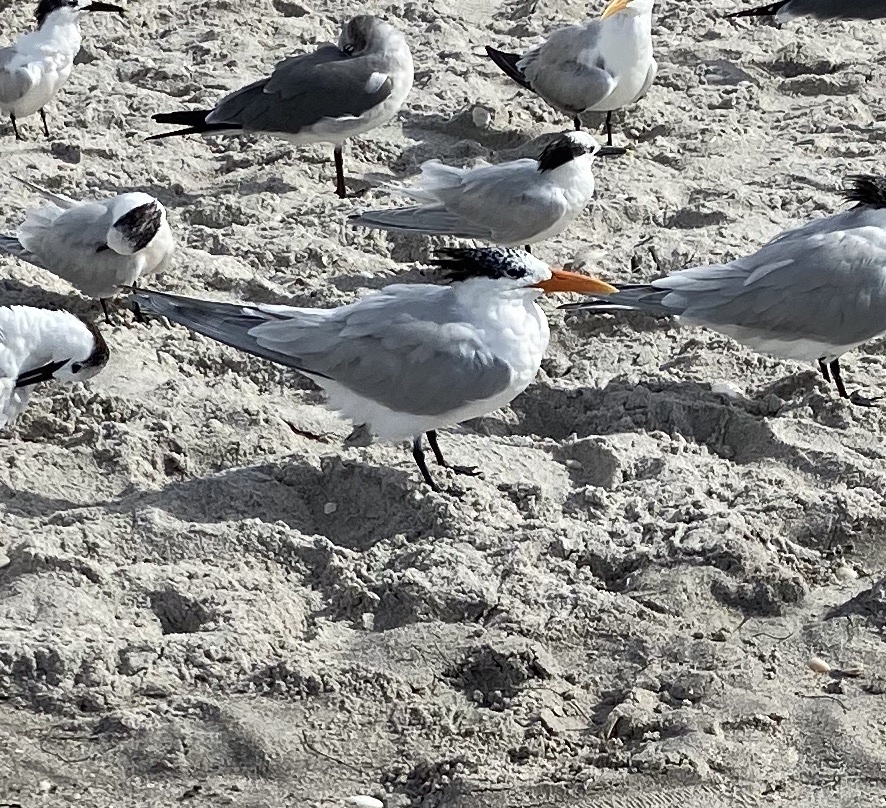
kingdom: Animalia
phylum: Chordata
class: Aves
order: Charadriiformes
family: Laridae
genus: Thalasseus
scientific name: Thalasseus maximus
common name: Royal tern
